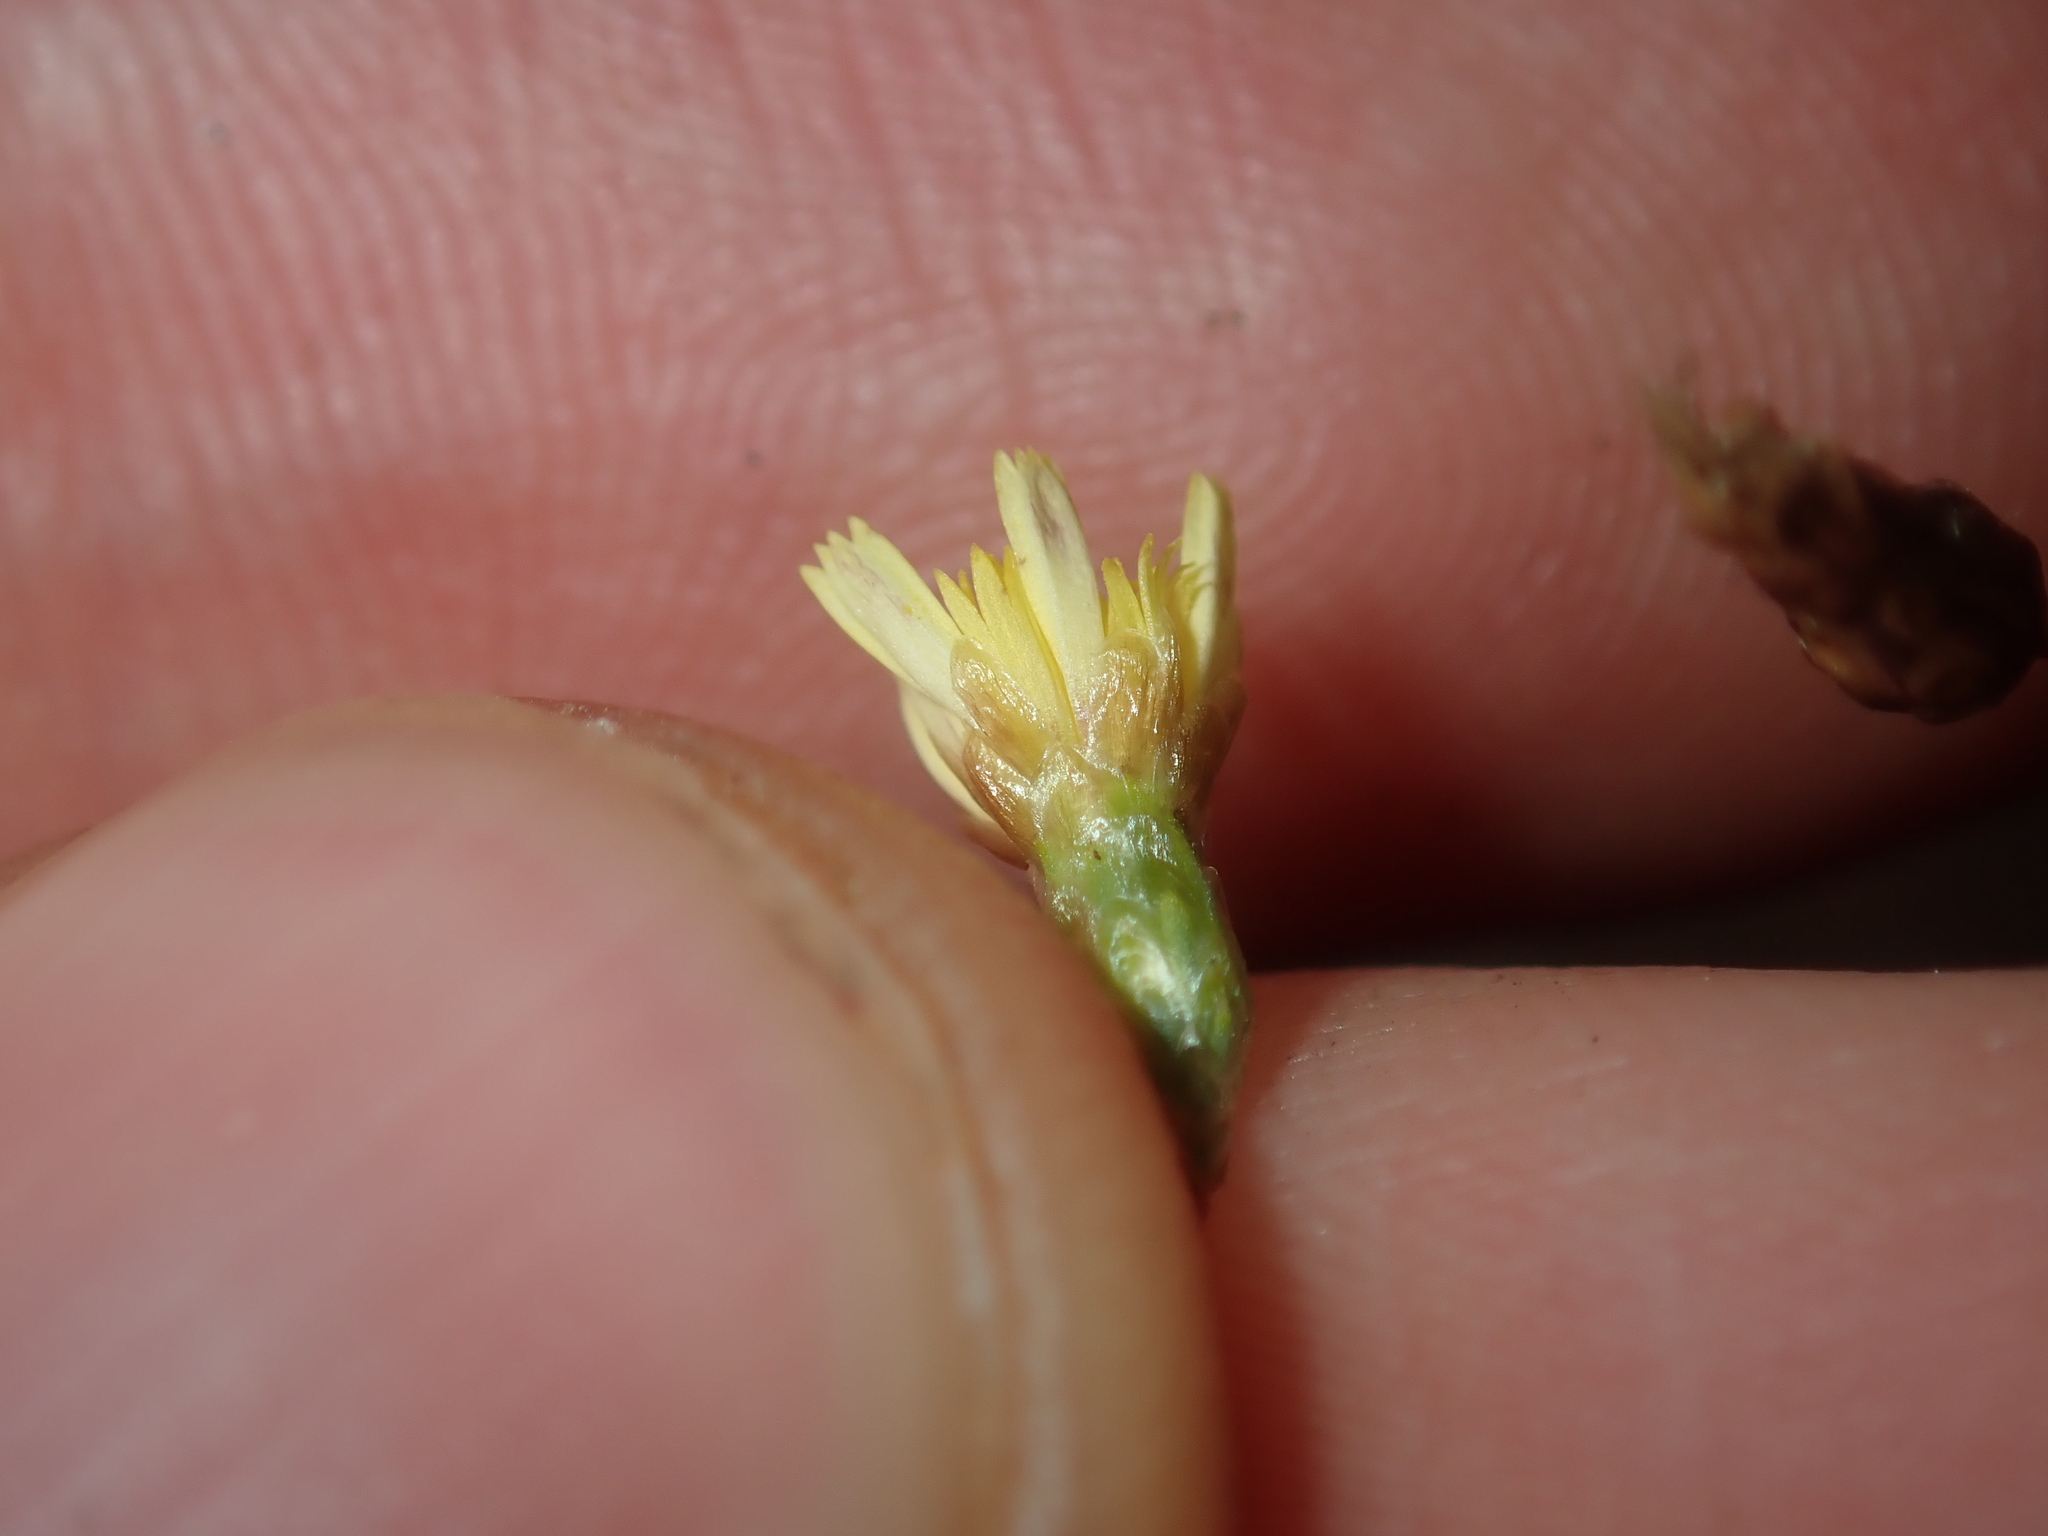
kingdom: Plantae
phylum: Tracheophyta
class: Magnoliopsida
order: Asterales
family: Asteraceae
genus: Siemssenia
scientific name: Siemssenia capillaris
